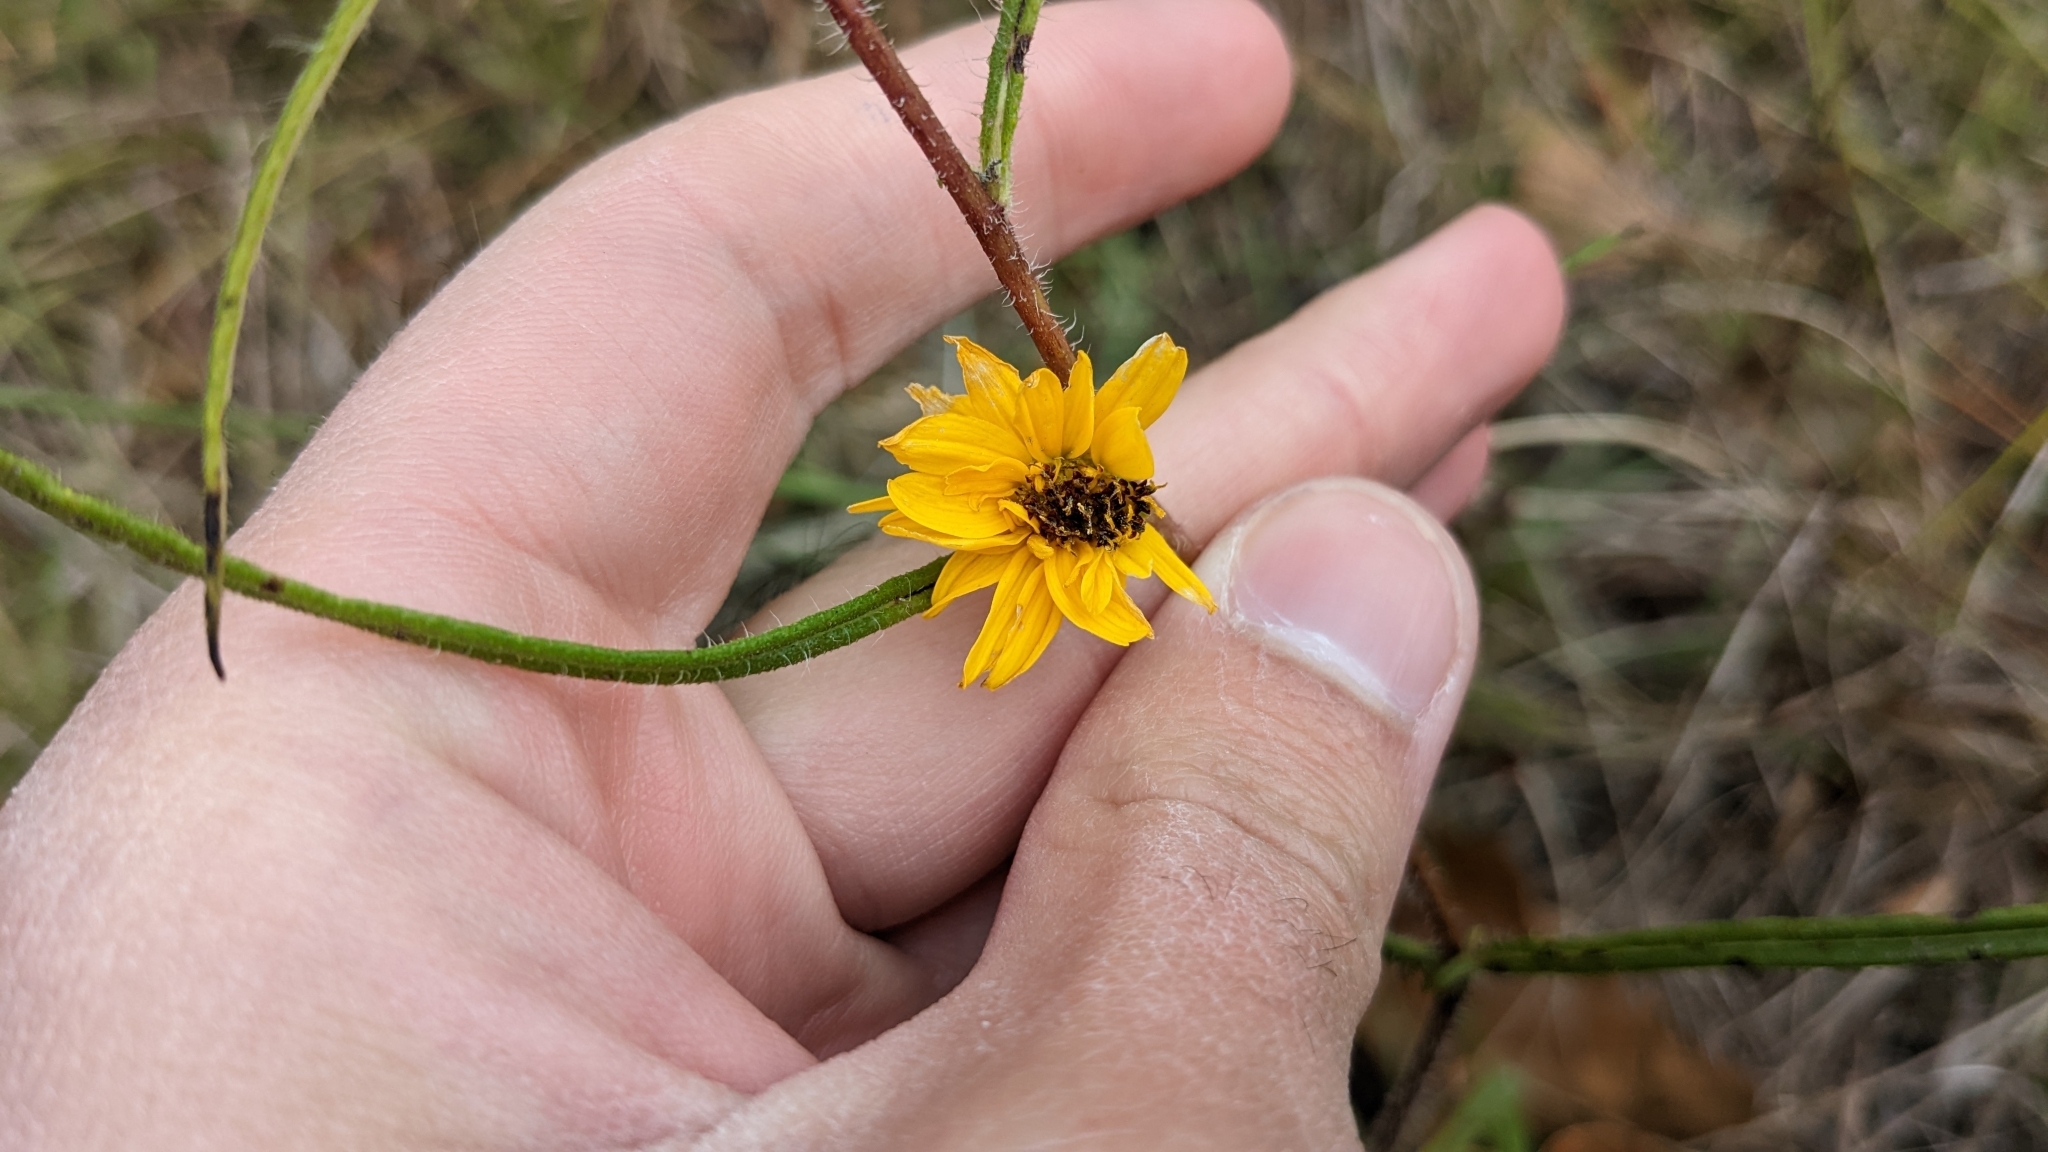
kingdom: Plantae
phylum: Tracheophyta
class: Magnoliopsida
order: Asterales
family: Asteraceae
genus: Helianthus
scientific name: Helianthus angustifolius
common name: Swamp sunflower
